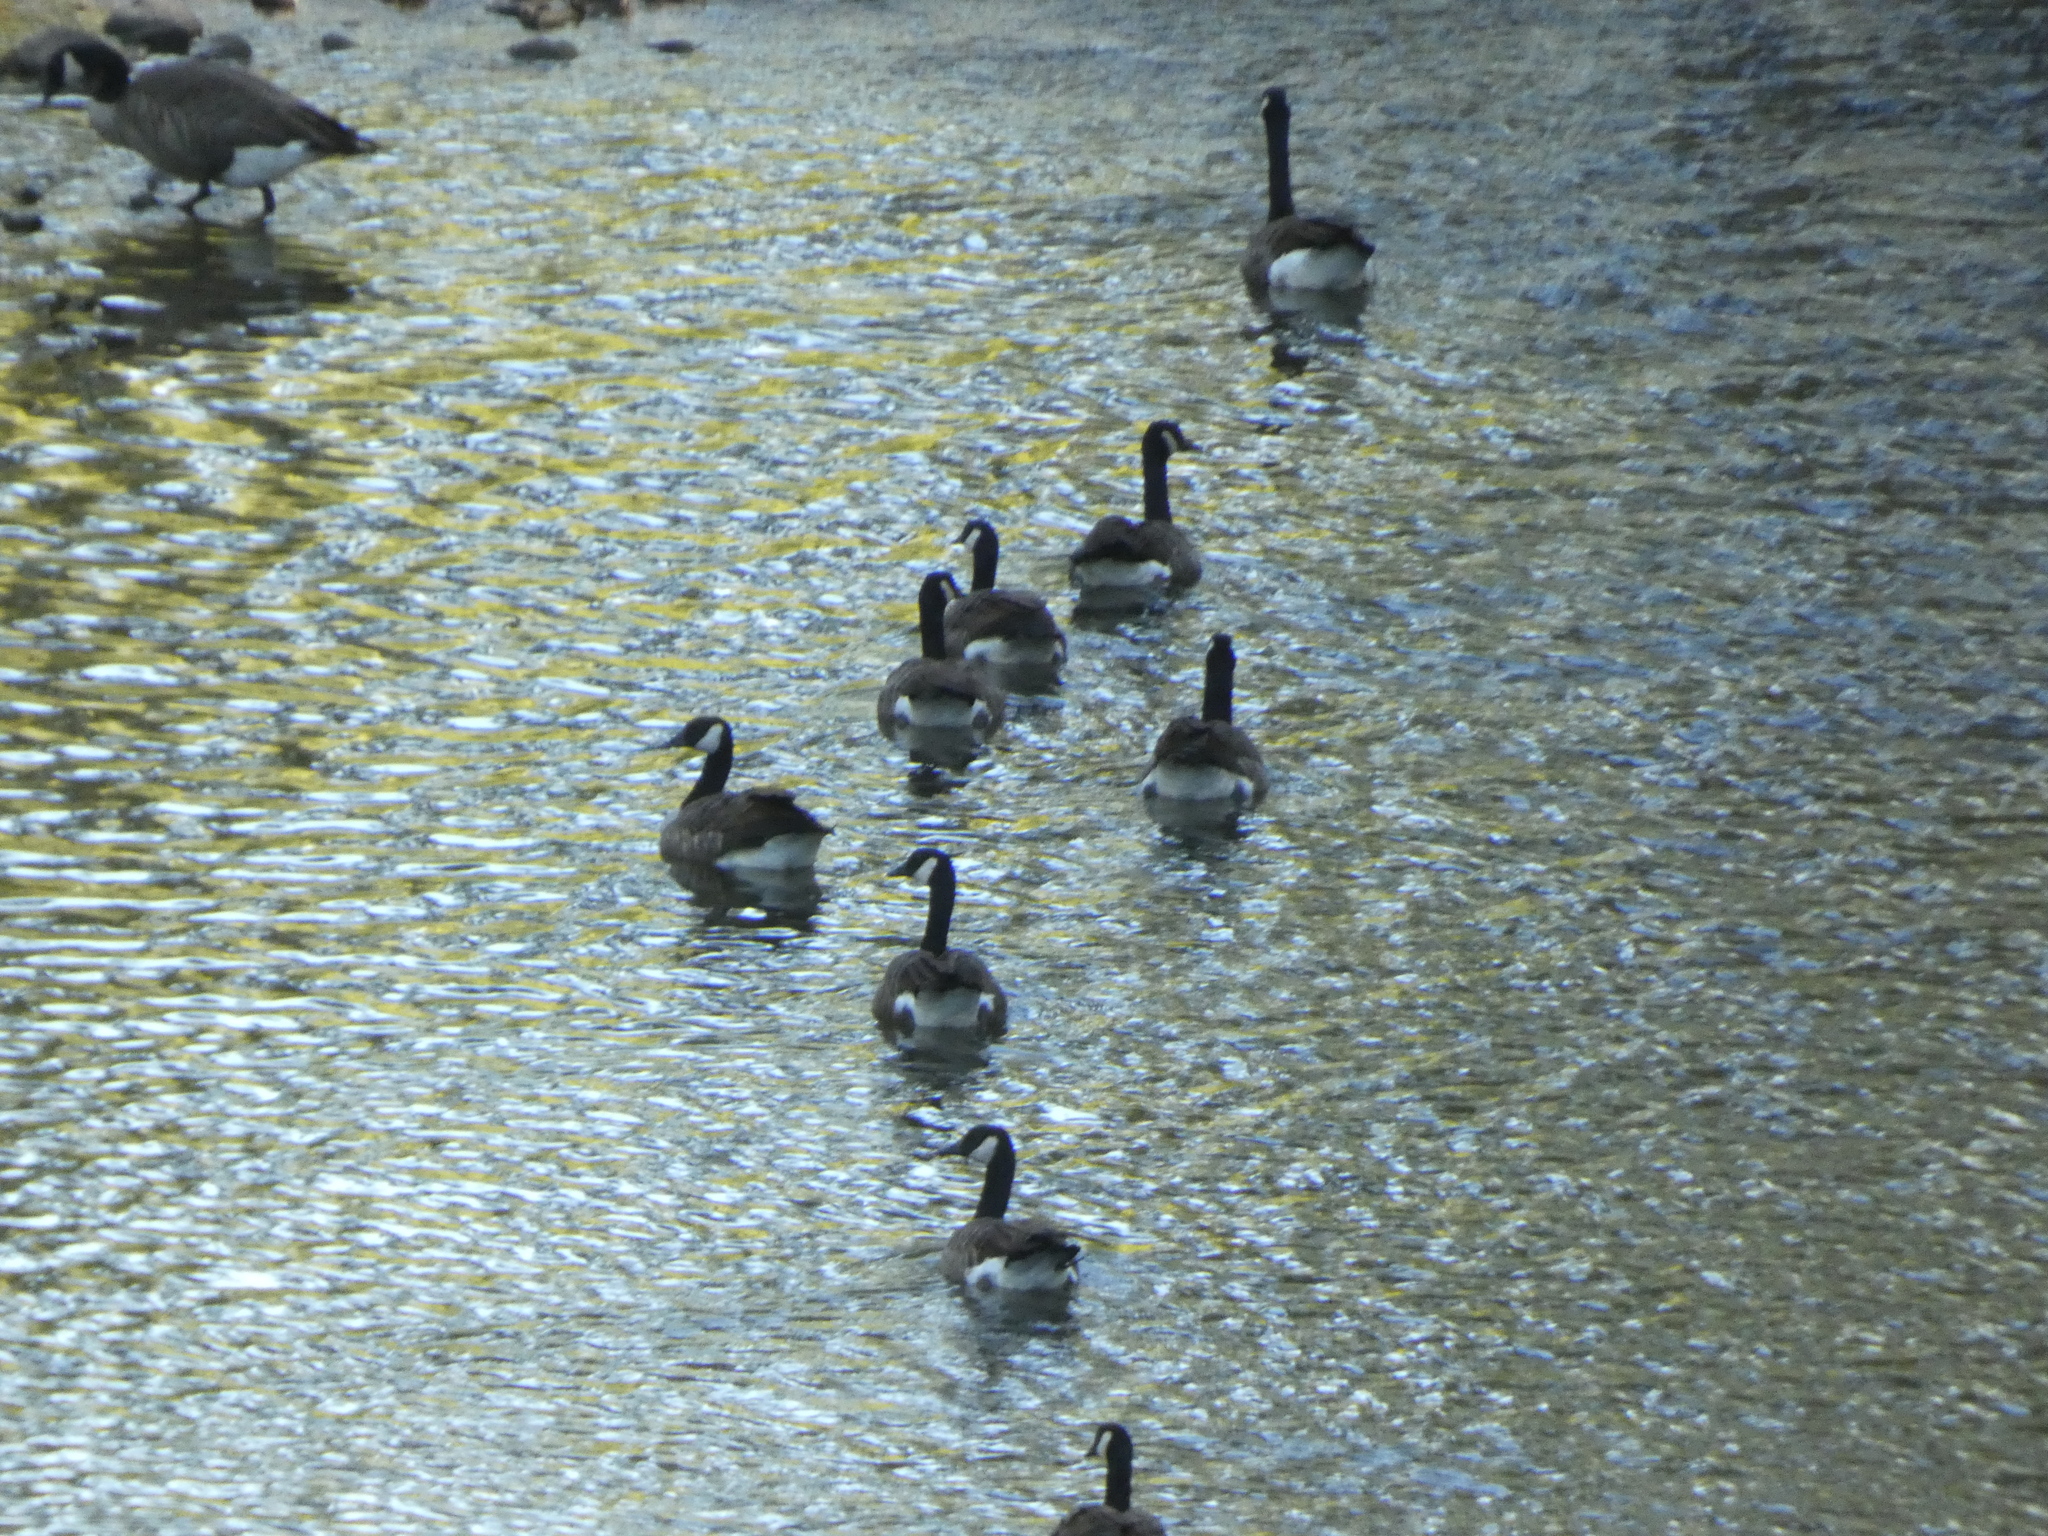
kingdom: Animalia
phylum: Chordata
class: Aves
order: Anseriformes
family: Anatidae
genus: Branta
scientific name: Branta canadensis
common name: Canada goose
